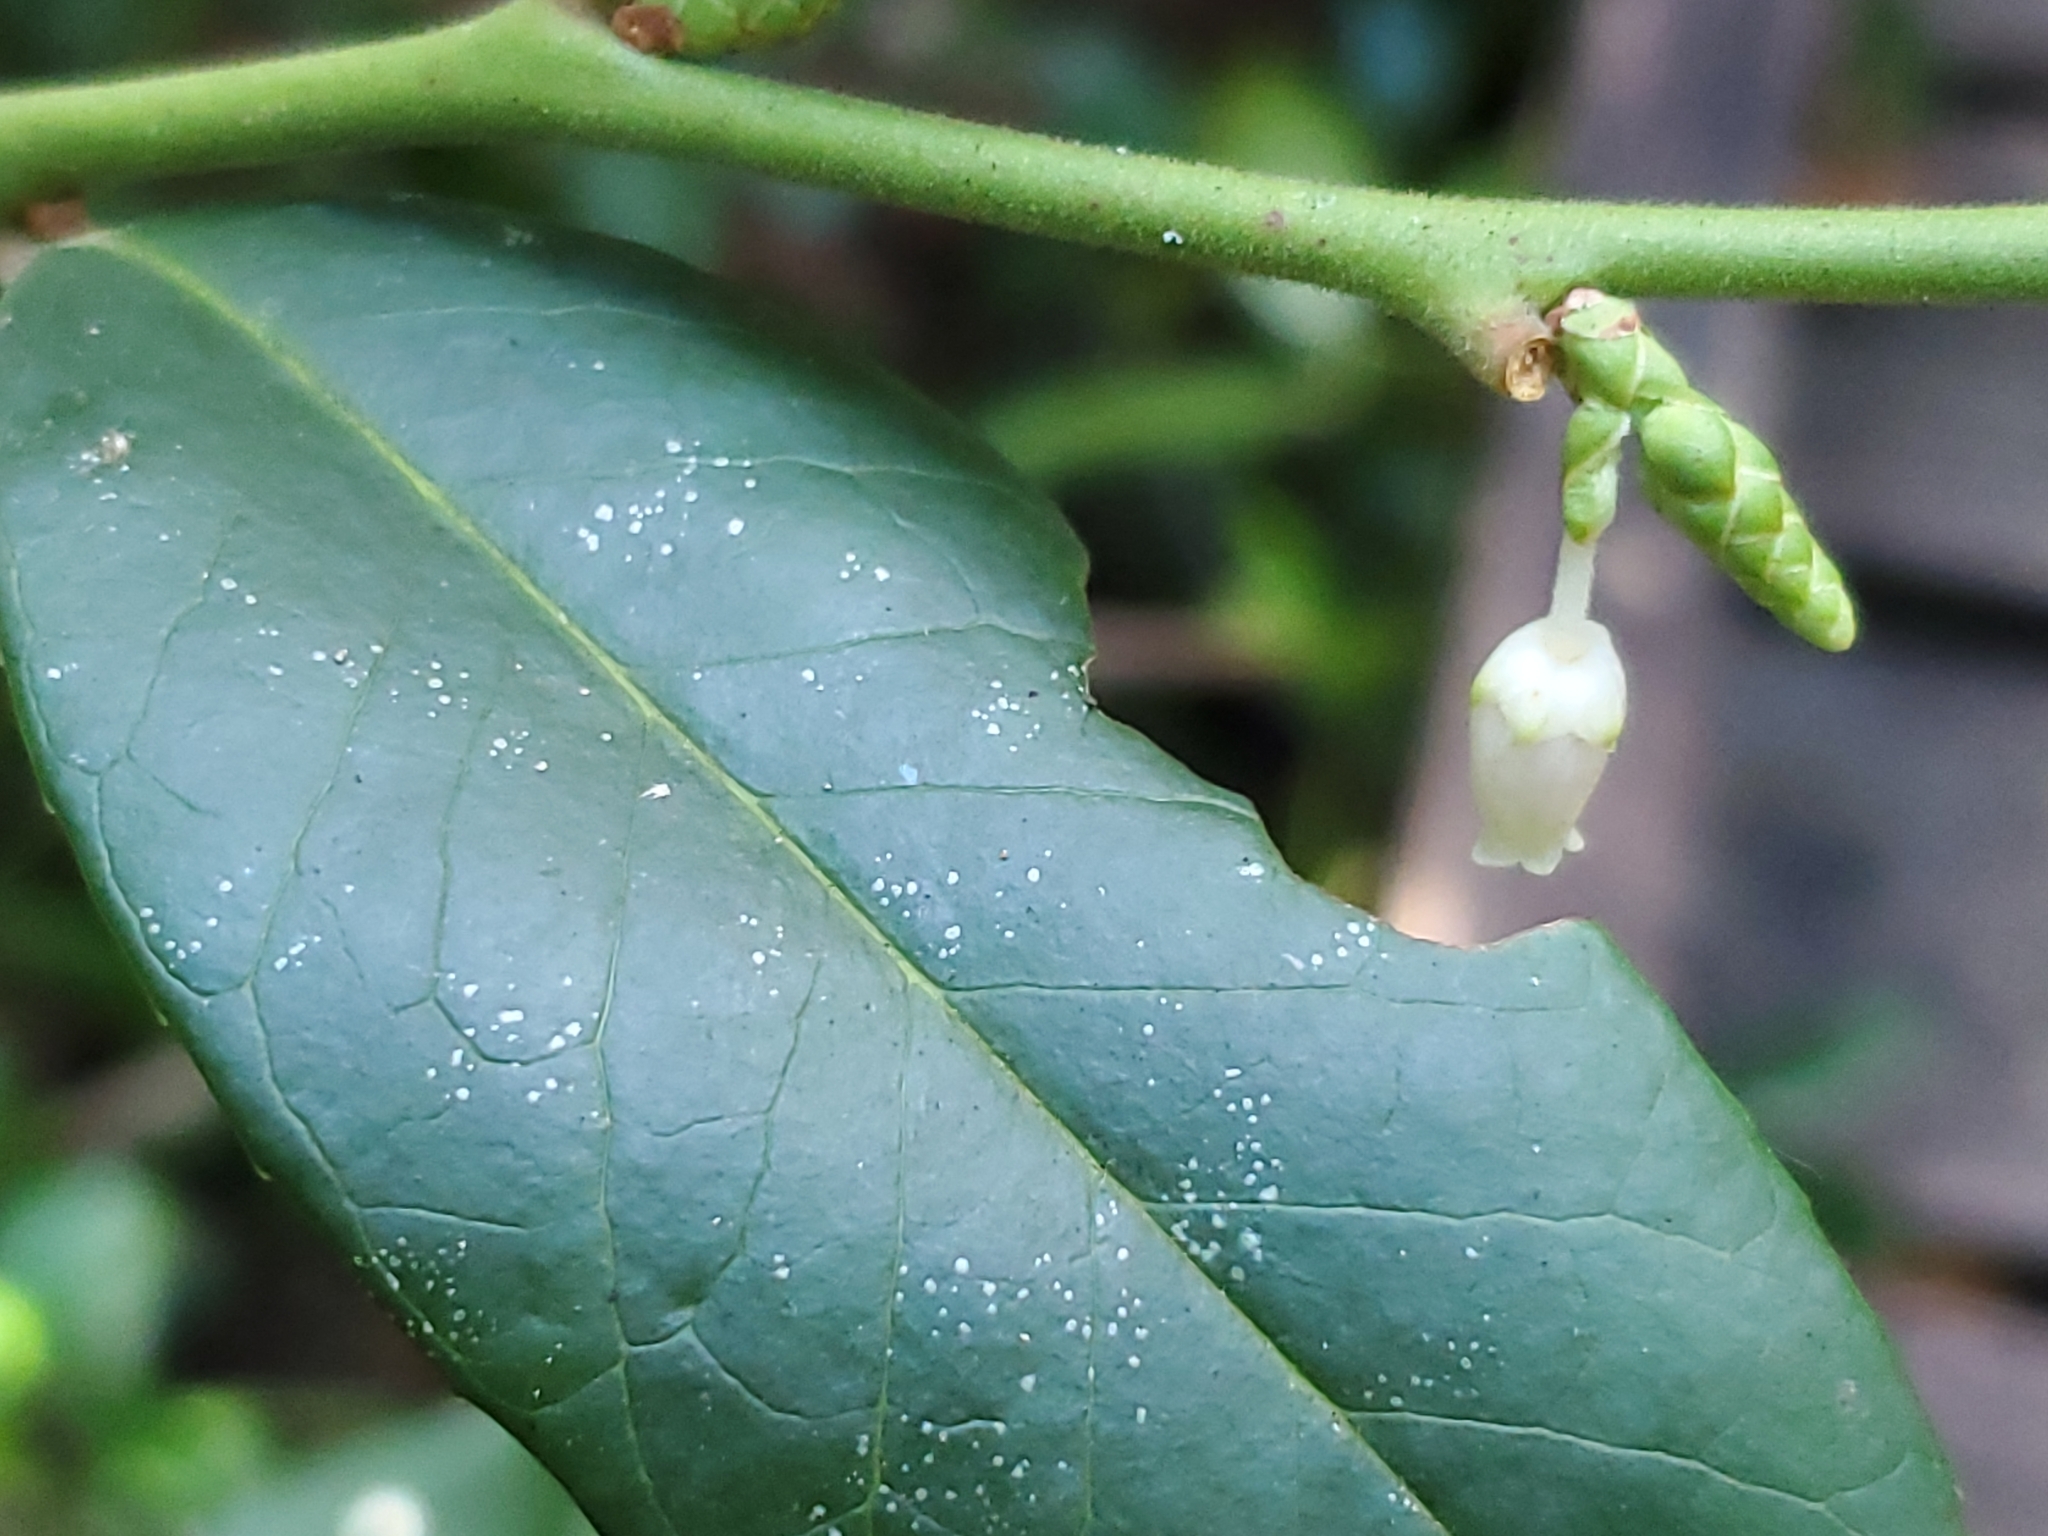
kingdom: Plantae
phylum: Tracheophyta
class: Magnoliopsida
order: Ericales
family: Ericaceae
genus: Leucothoe
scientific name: Leucothoe axillaris
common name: Leucothoe
